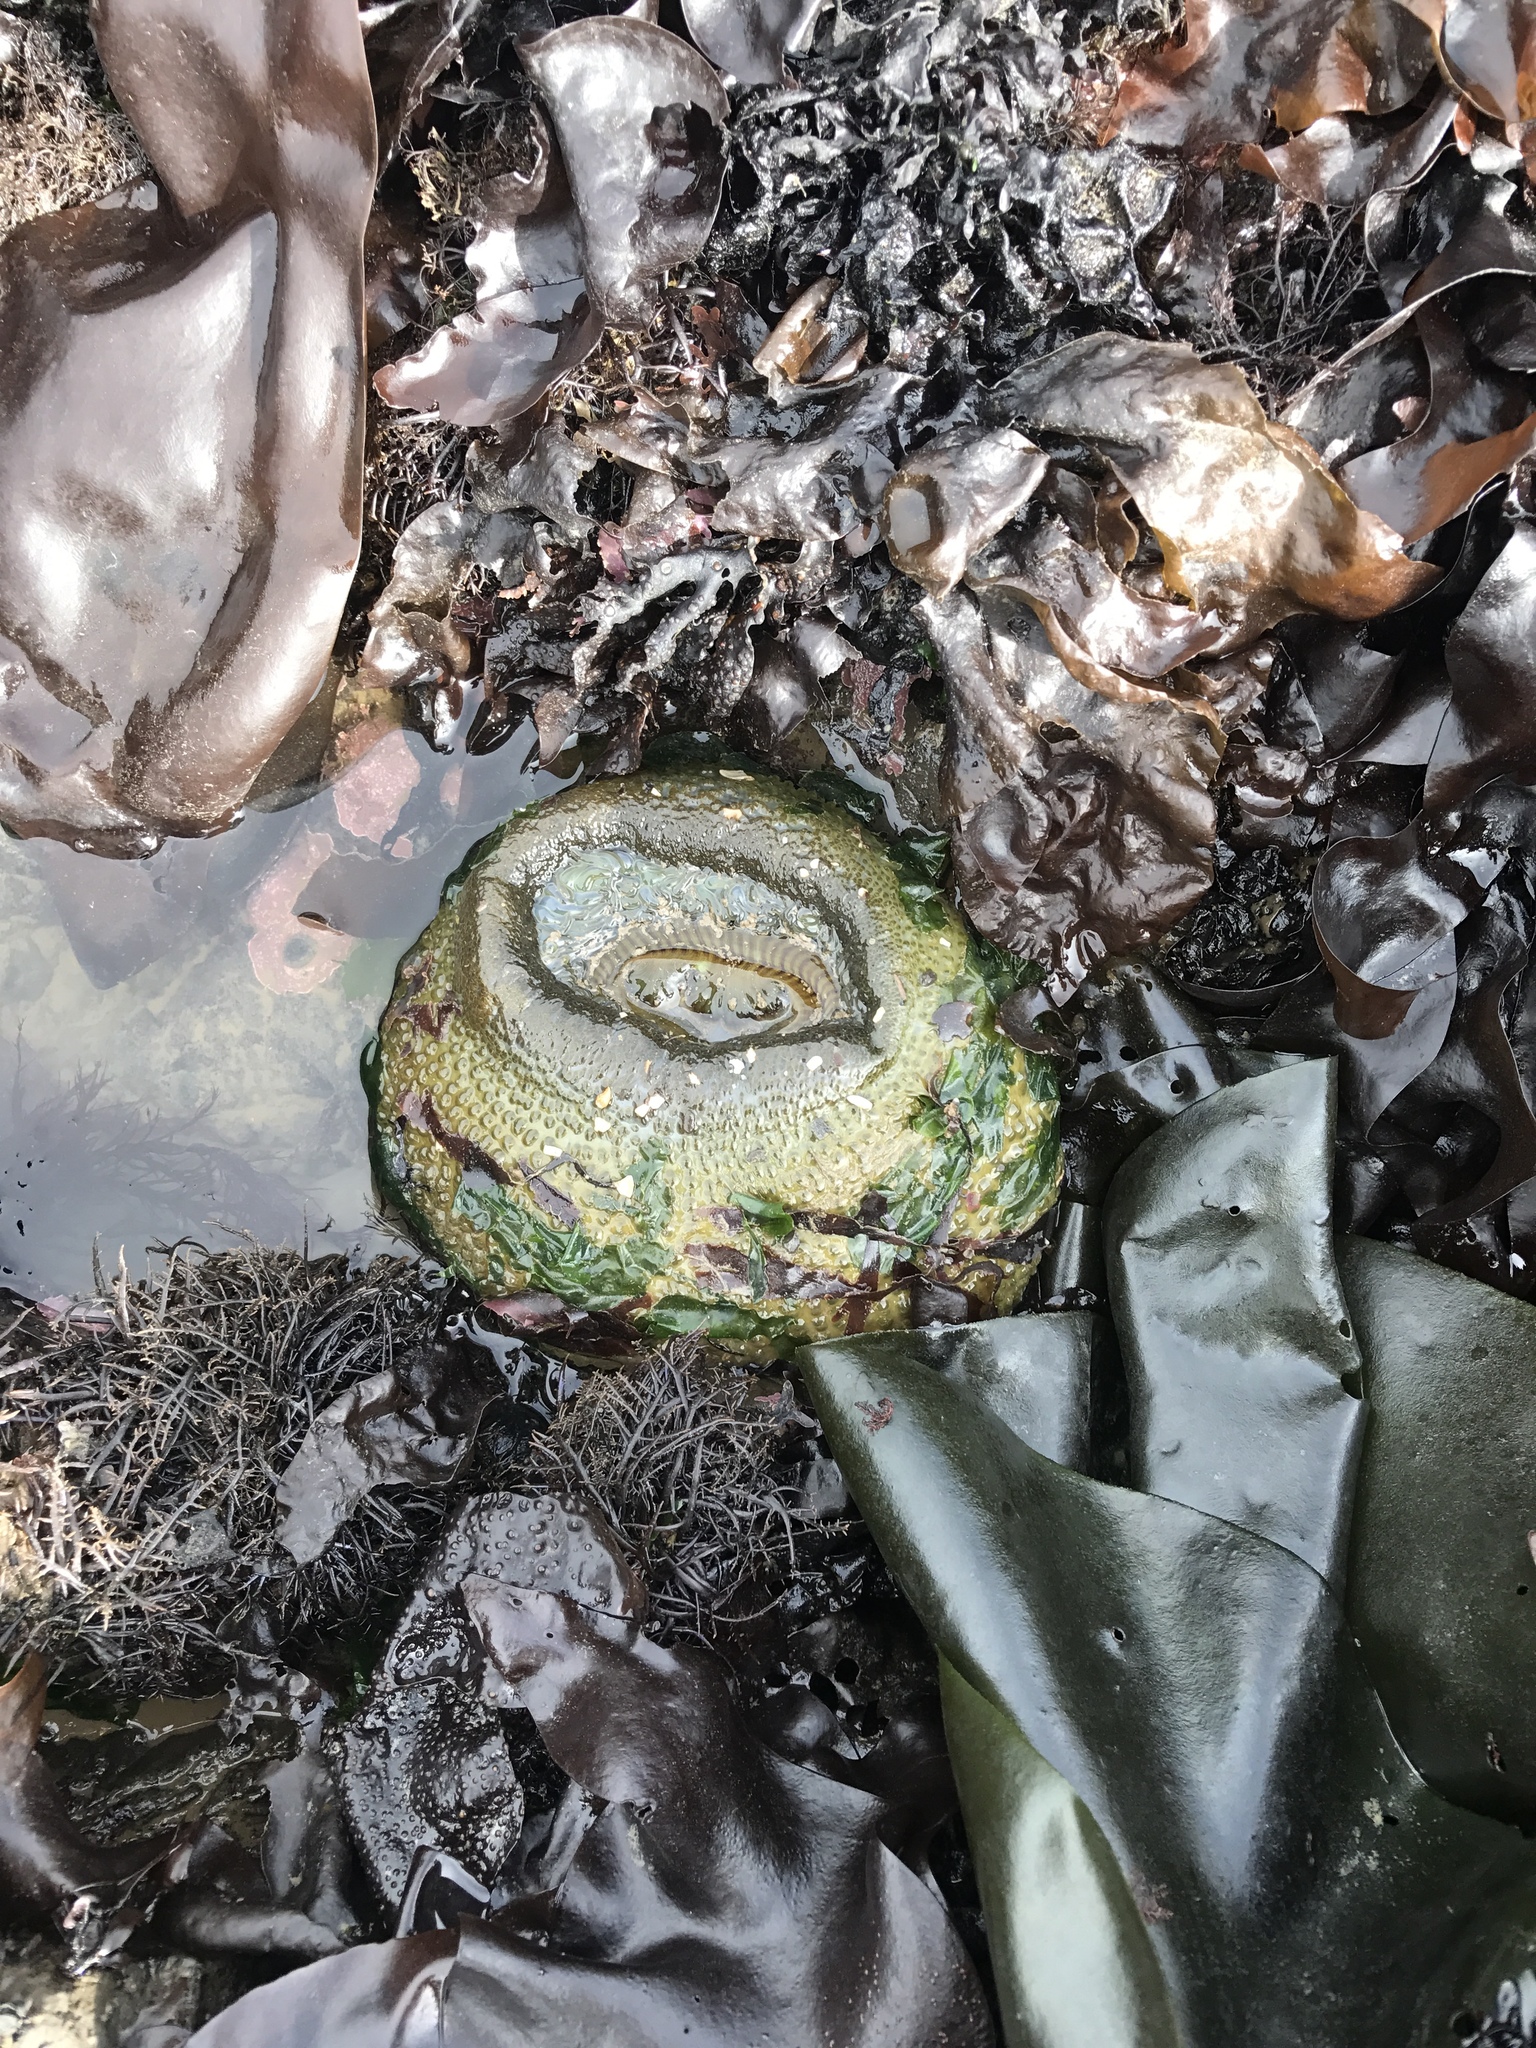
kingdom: Animalia
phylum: Cnidaria
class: Anthozoa
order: Actiniaria
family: Actiniidae
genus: Anthopleura
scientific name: Anthopleura xanthogrammica
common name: Giant green anemone
